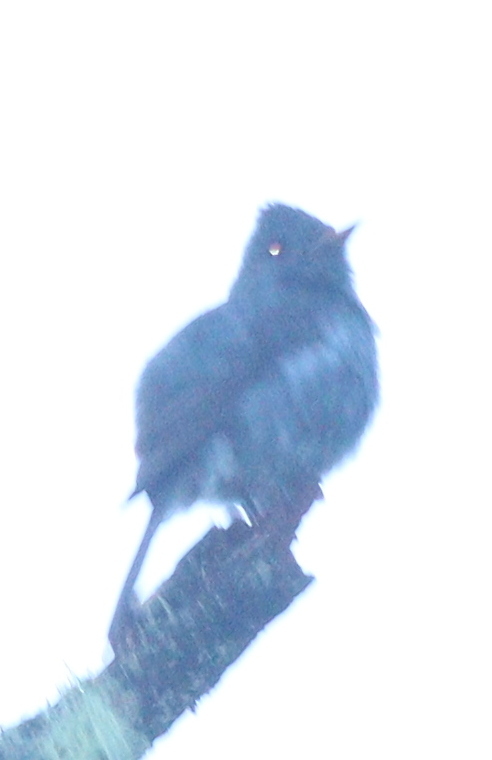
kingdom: Animalia
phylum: Chordata
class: Aves
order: Passeriformes
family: Tyrannidae
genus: Contopus
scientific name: Contopus lugubris
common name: Dark pewee
